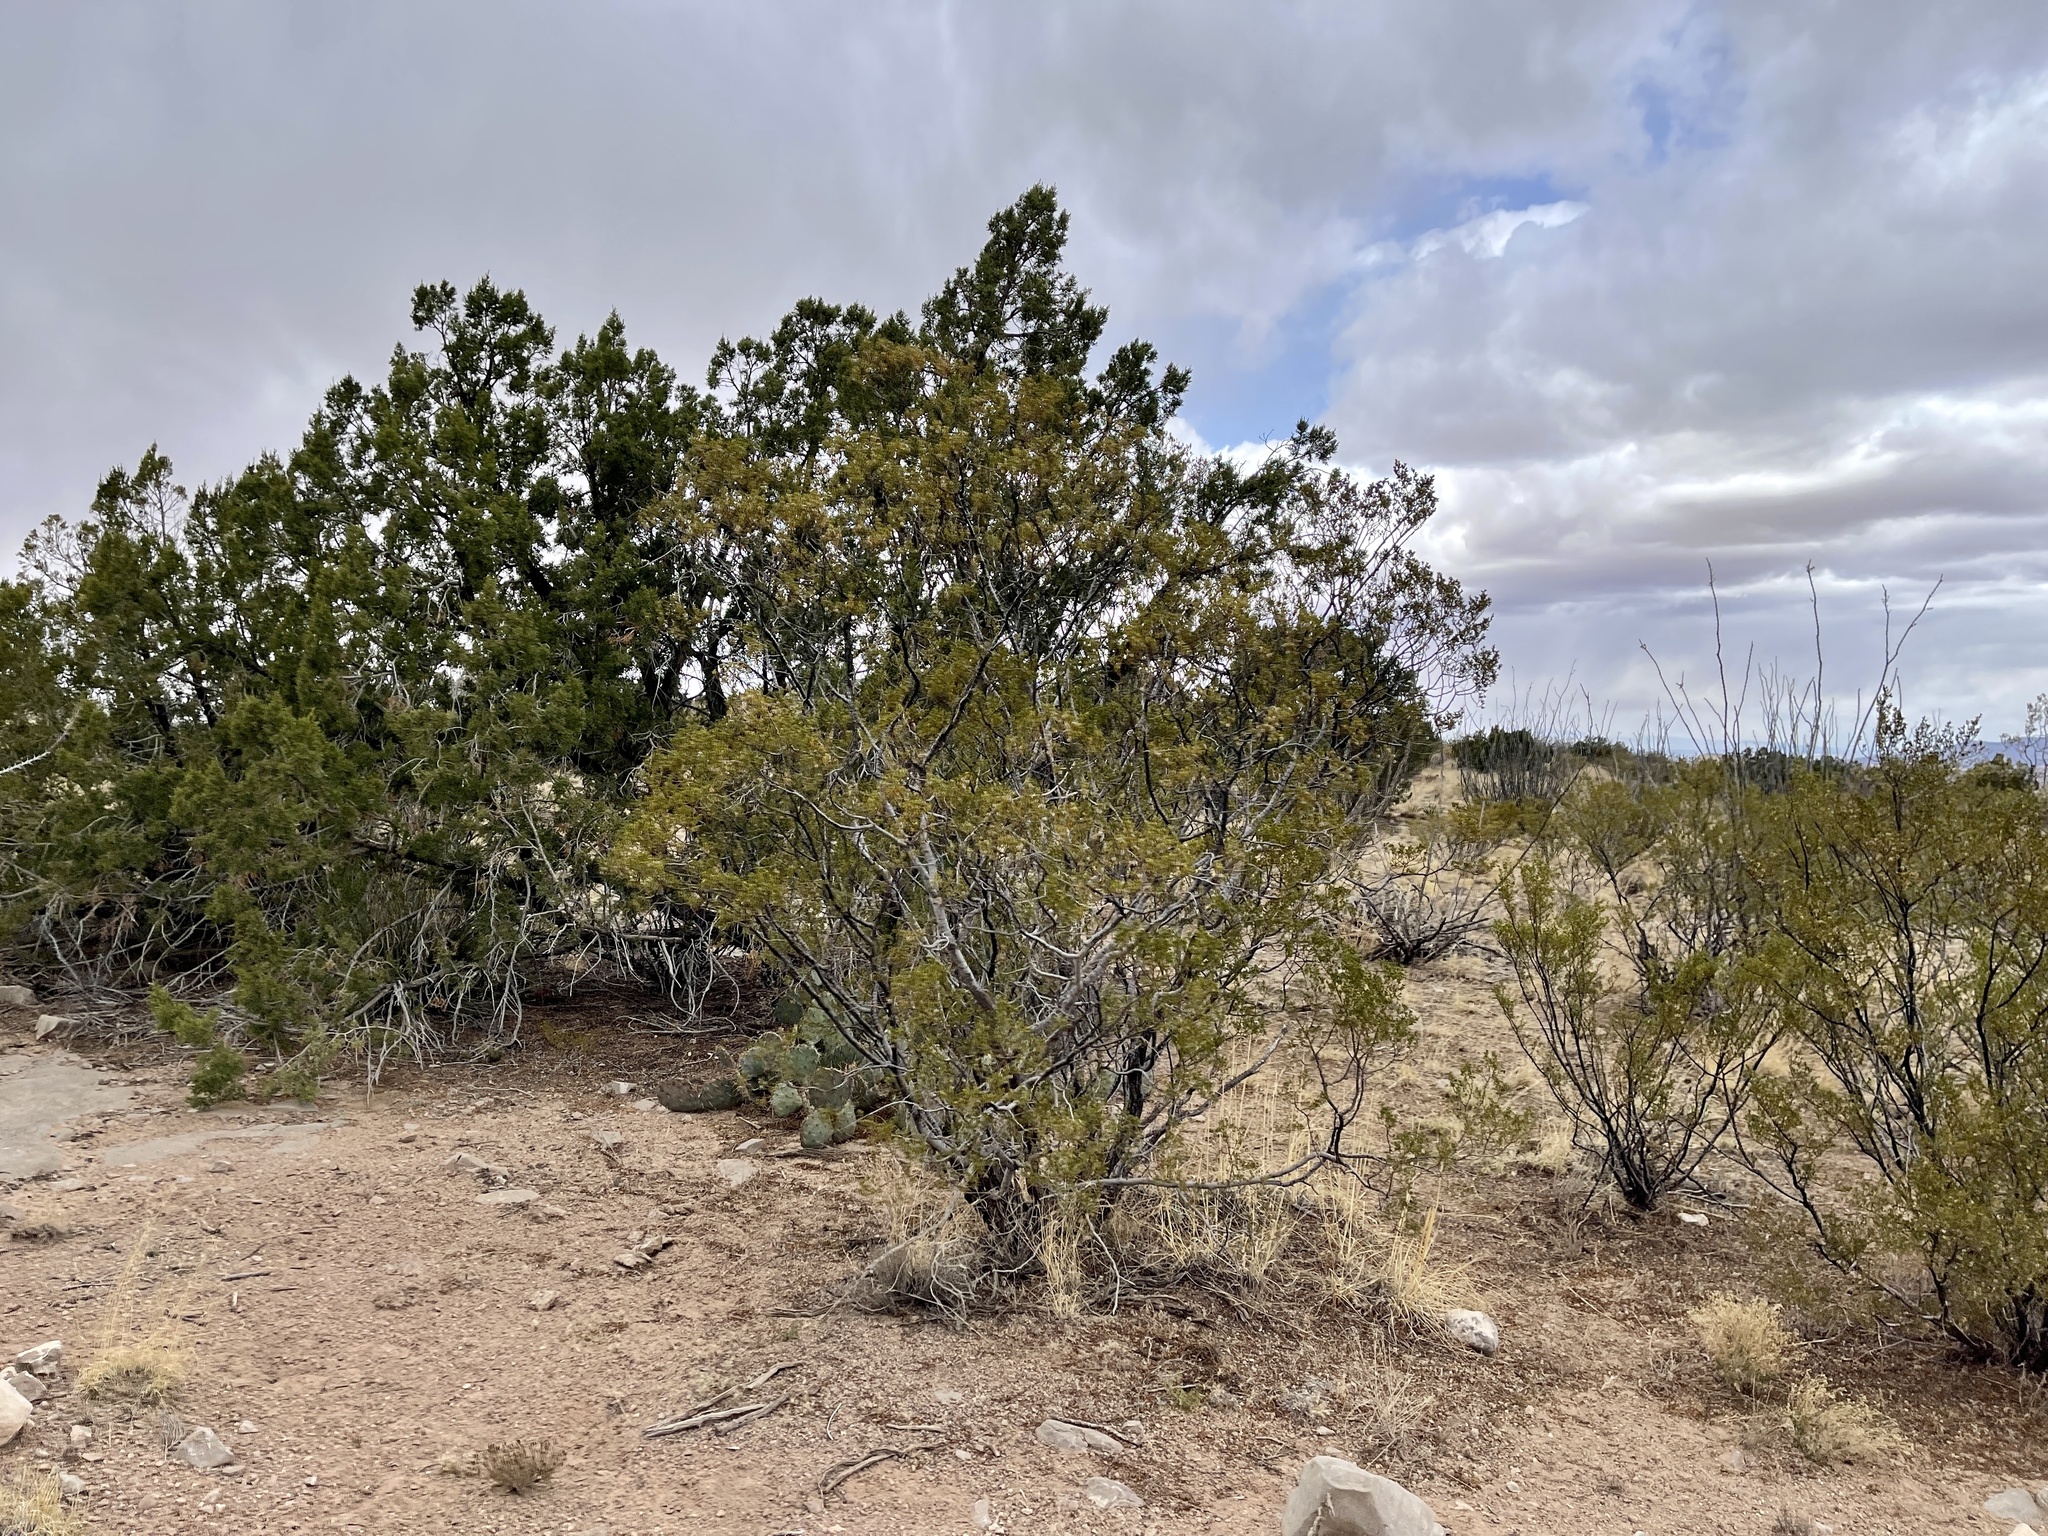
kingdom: Plantae
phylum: Tracheophyta
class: Magnoliopsida
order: Zygophyllales
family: Zygophyllaceae
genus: Larrea
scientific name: Larrea tridentata
